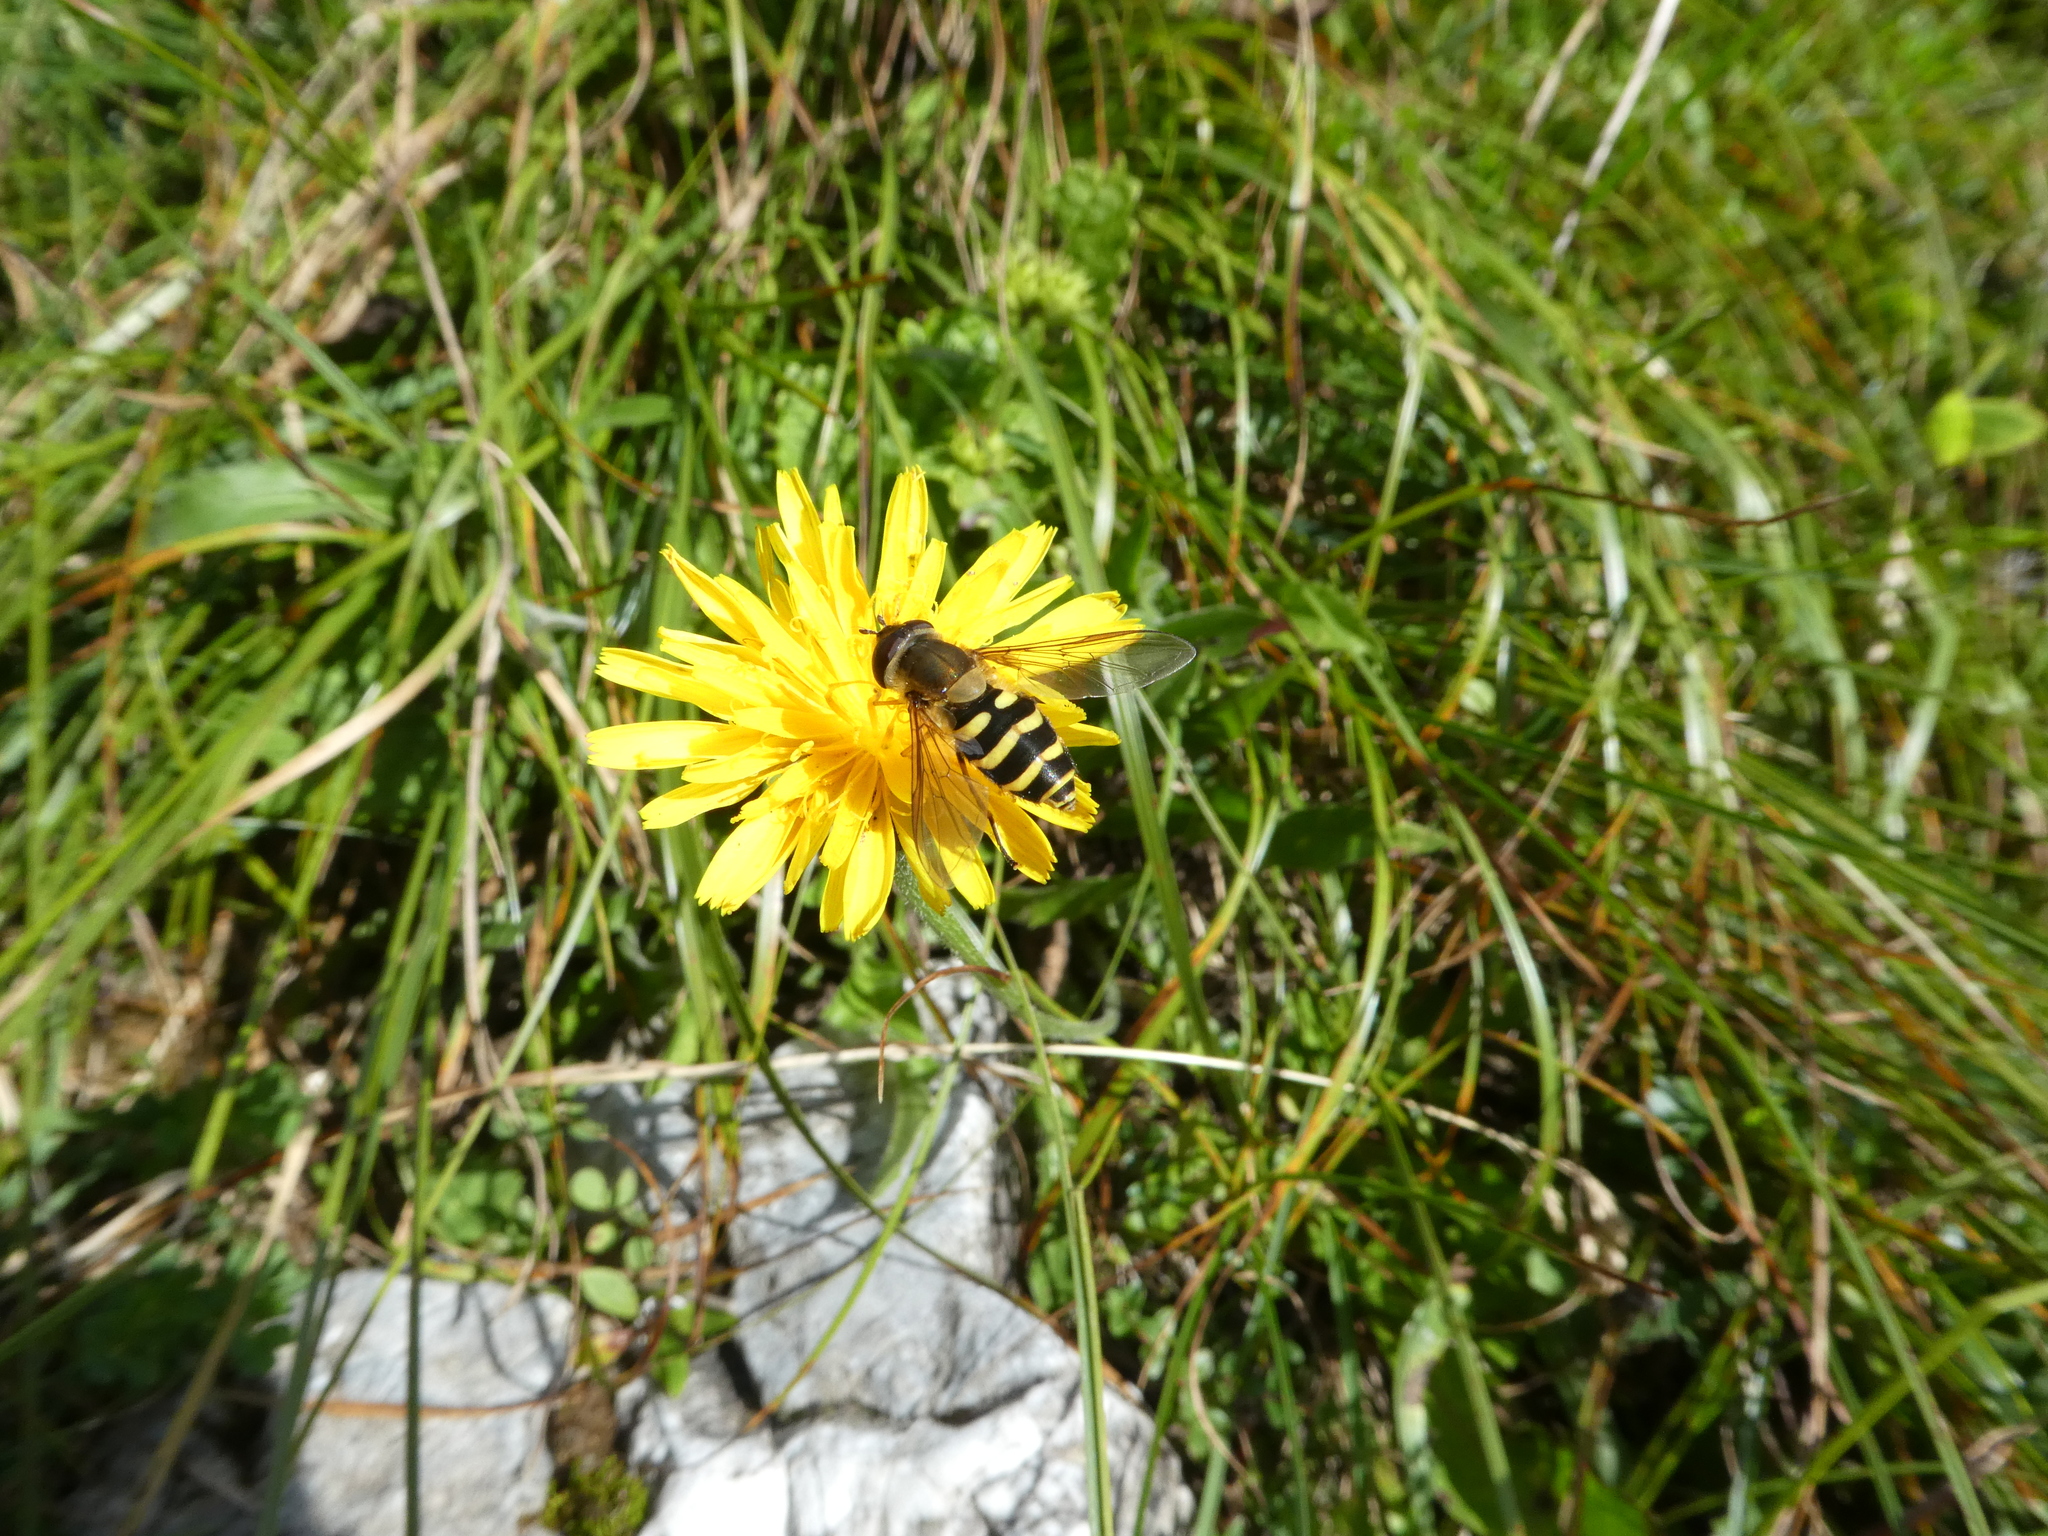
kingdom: Animalia
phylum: Arthropoda
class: Insecta
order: Diptera
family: Syrphidae
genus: Syrphus
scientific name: Syrphus
